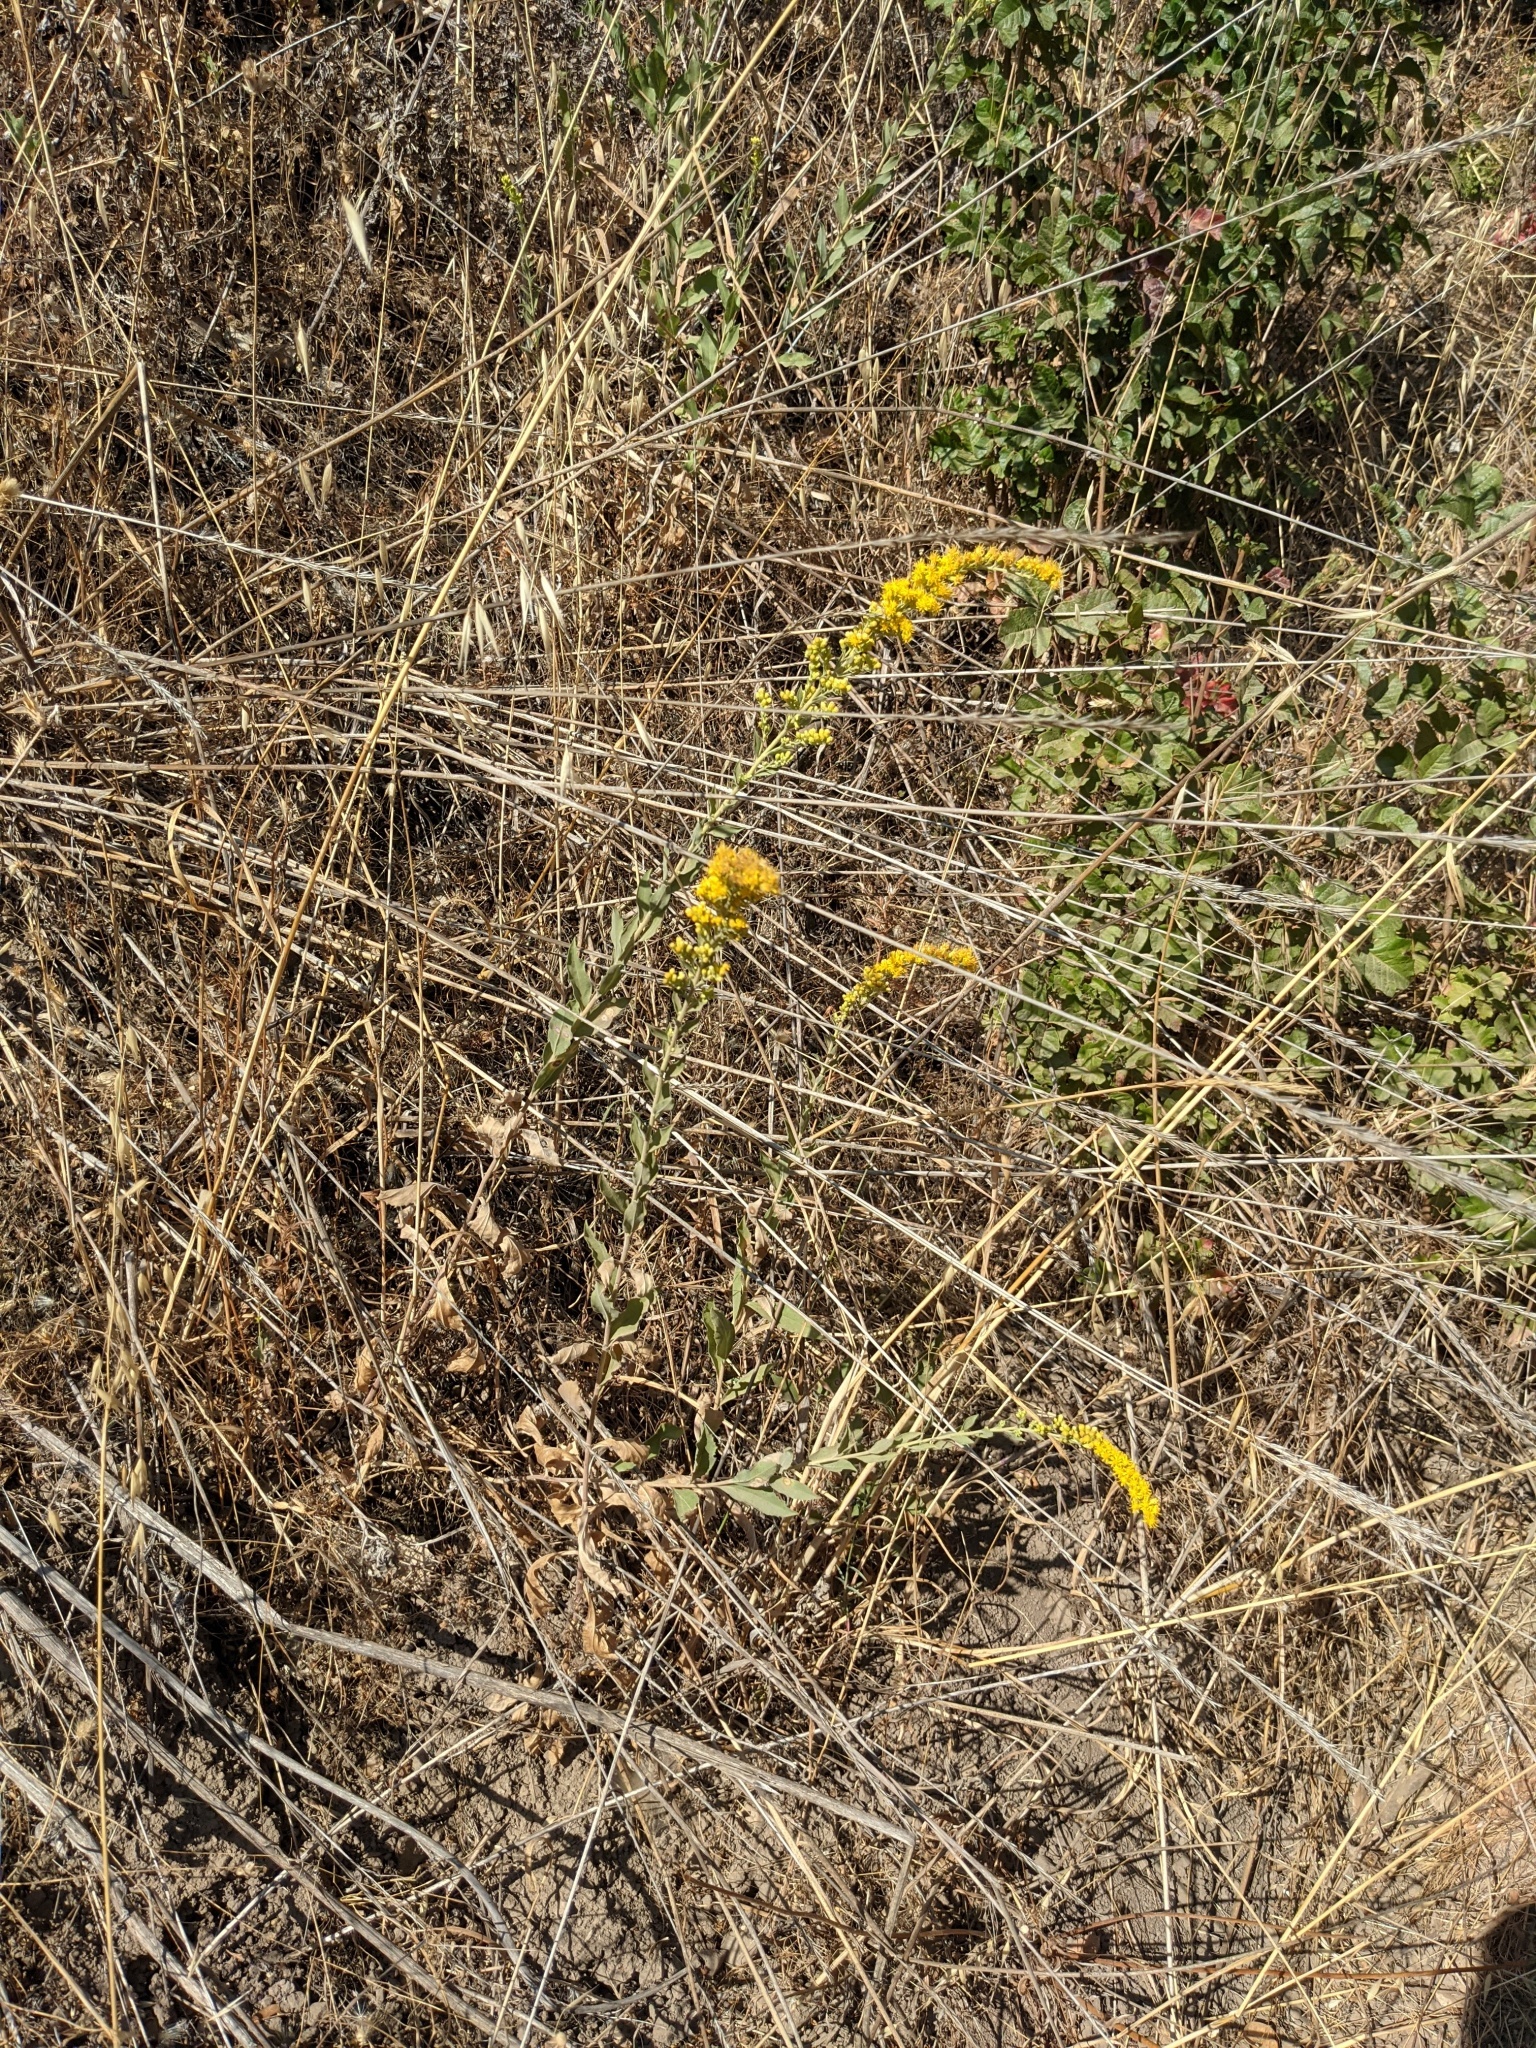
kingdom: Plantae
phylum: Tracheophyta
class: Magnoliopsida
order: Asterales
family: Asteraceae
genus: Solidago
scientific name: Solidago californica
